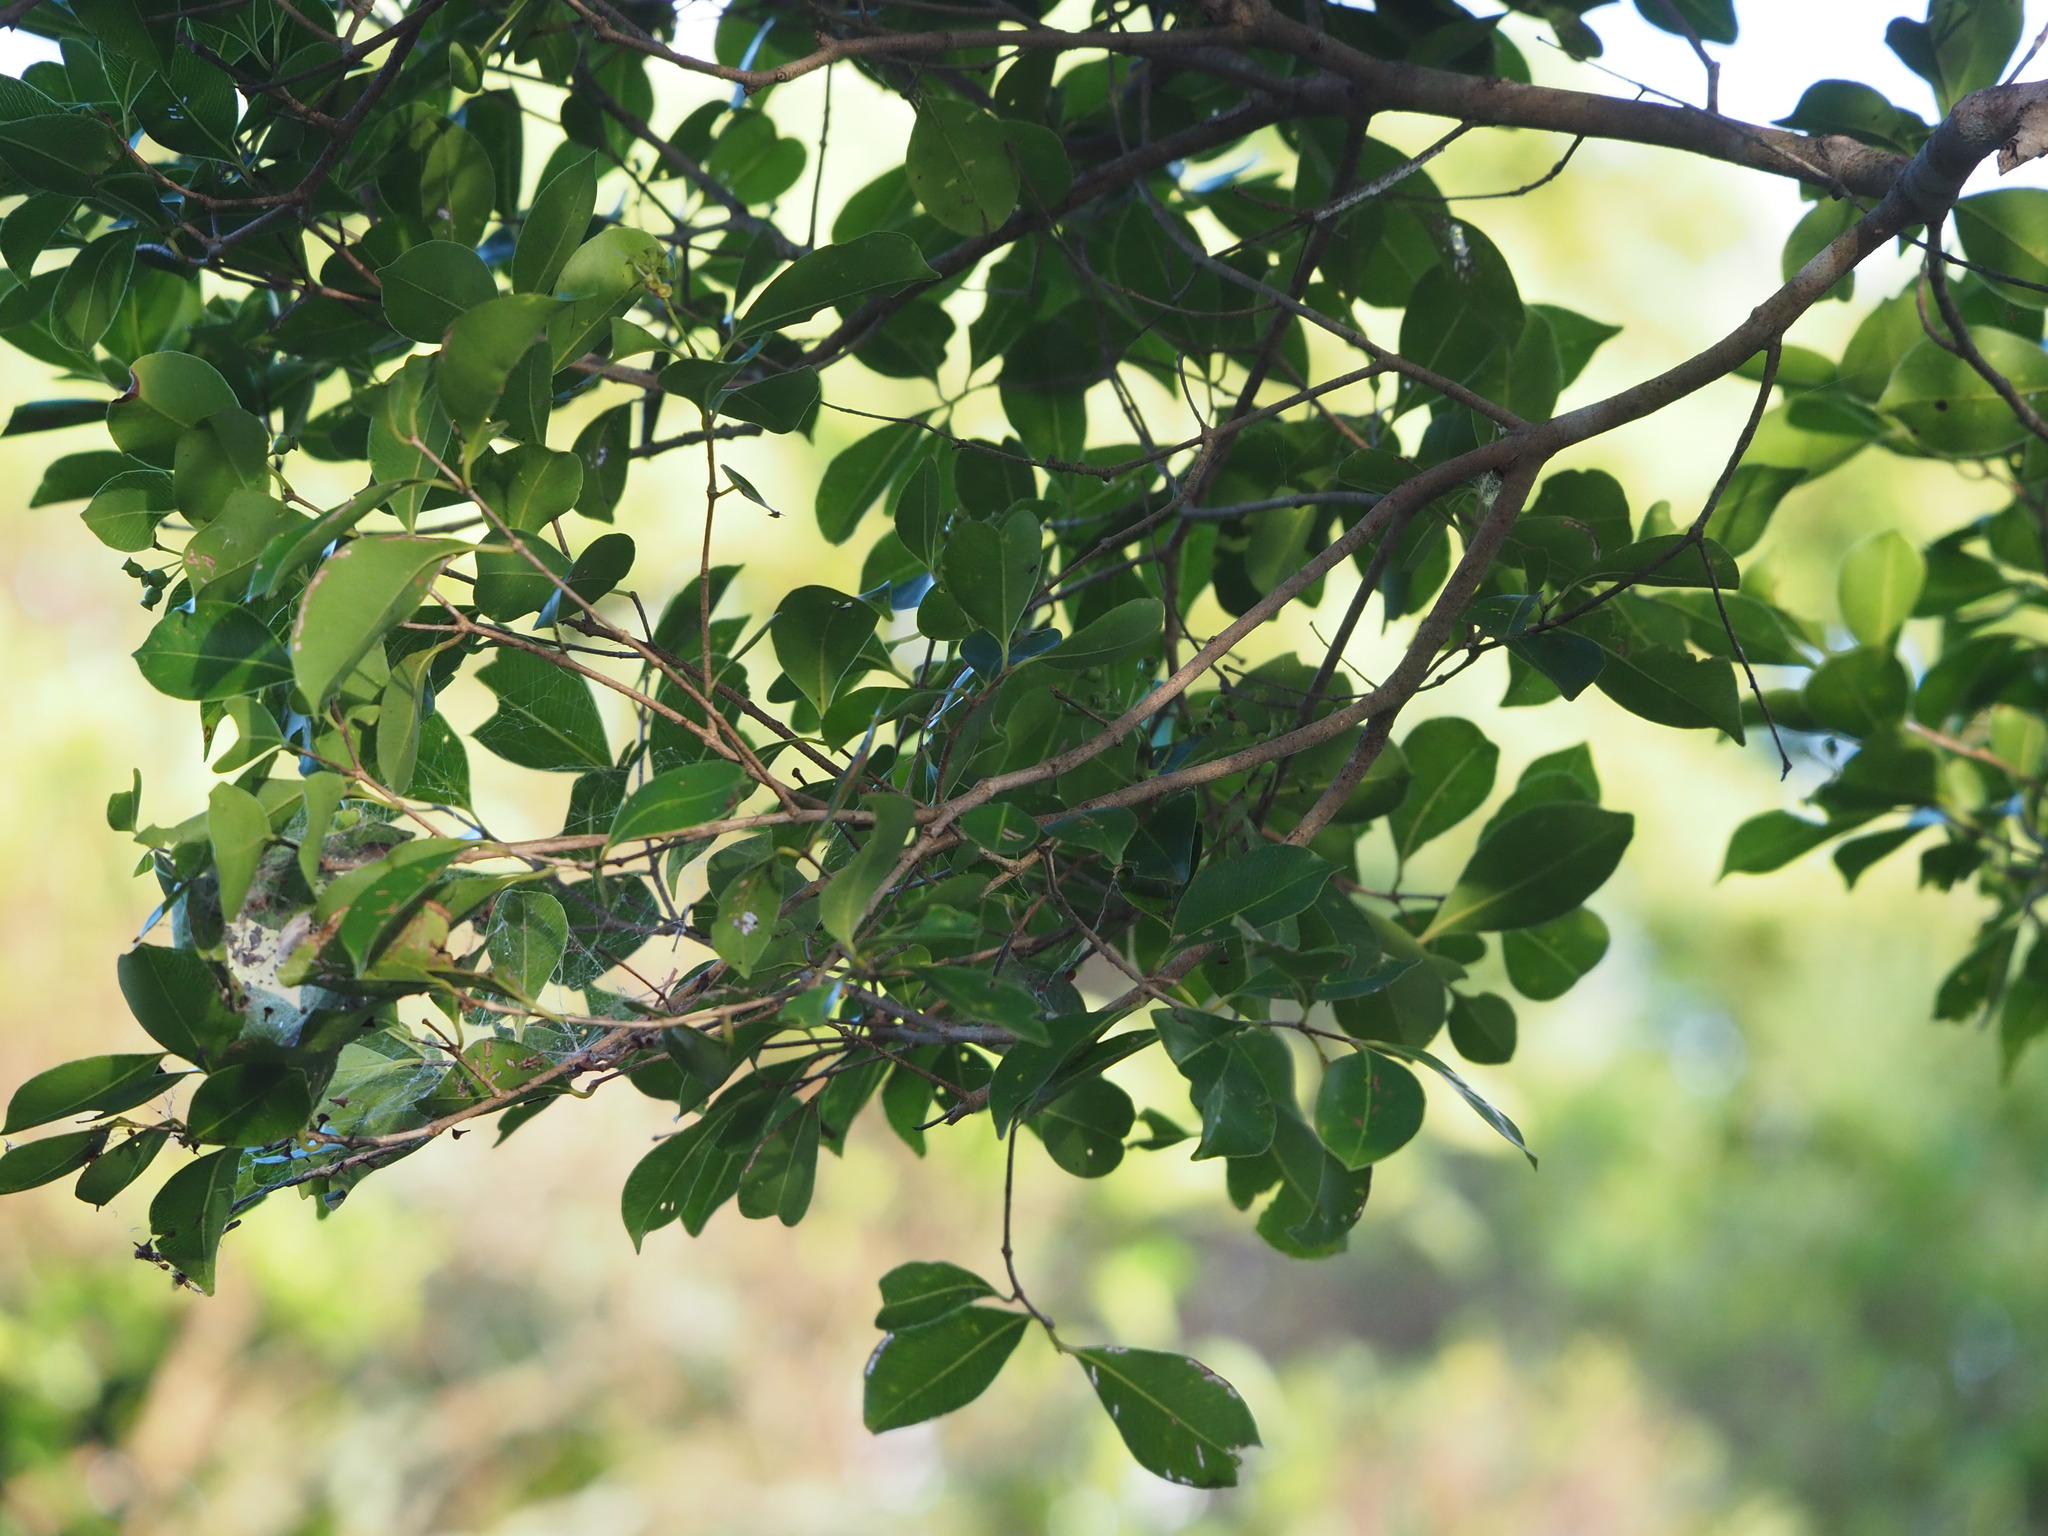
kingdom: Plantae
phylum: Tracheophyta
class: Magnoliopsida
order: Myrtales
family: Myrtaceae
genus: Syzygium
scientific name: Syzygium formosanum
